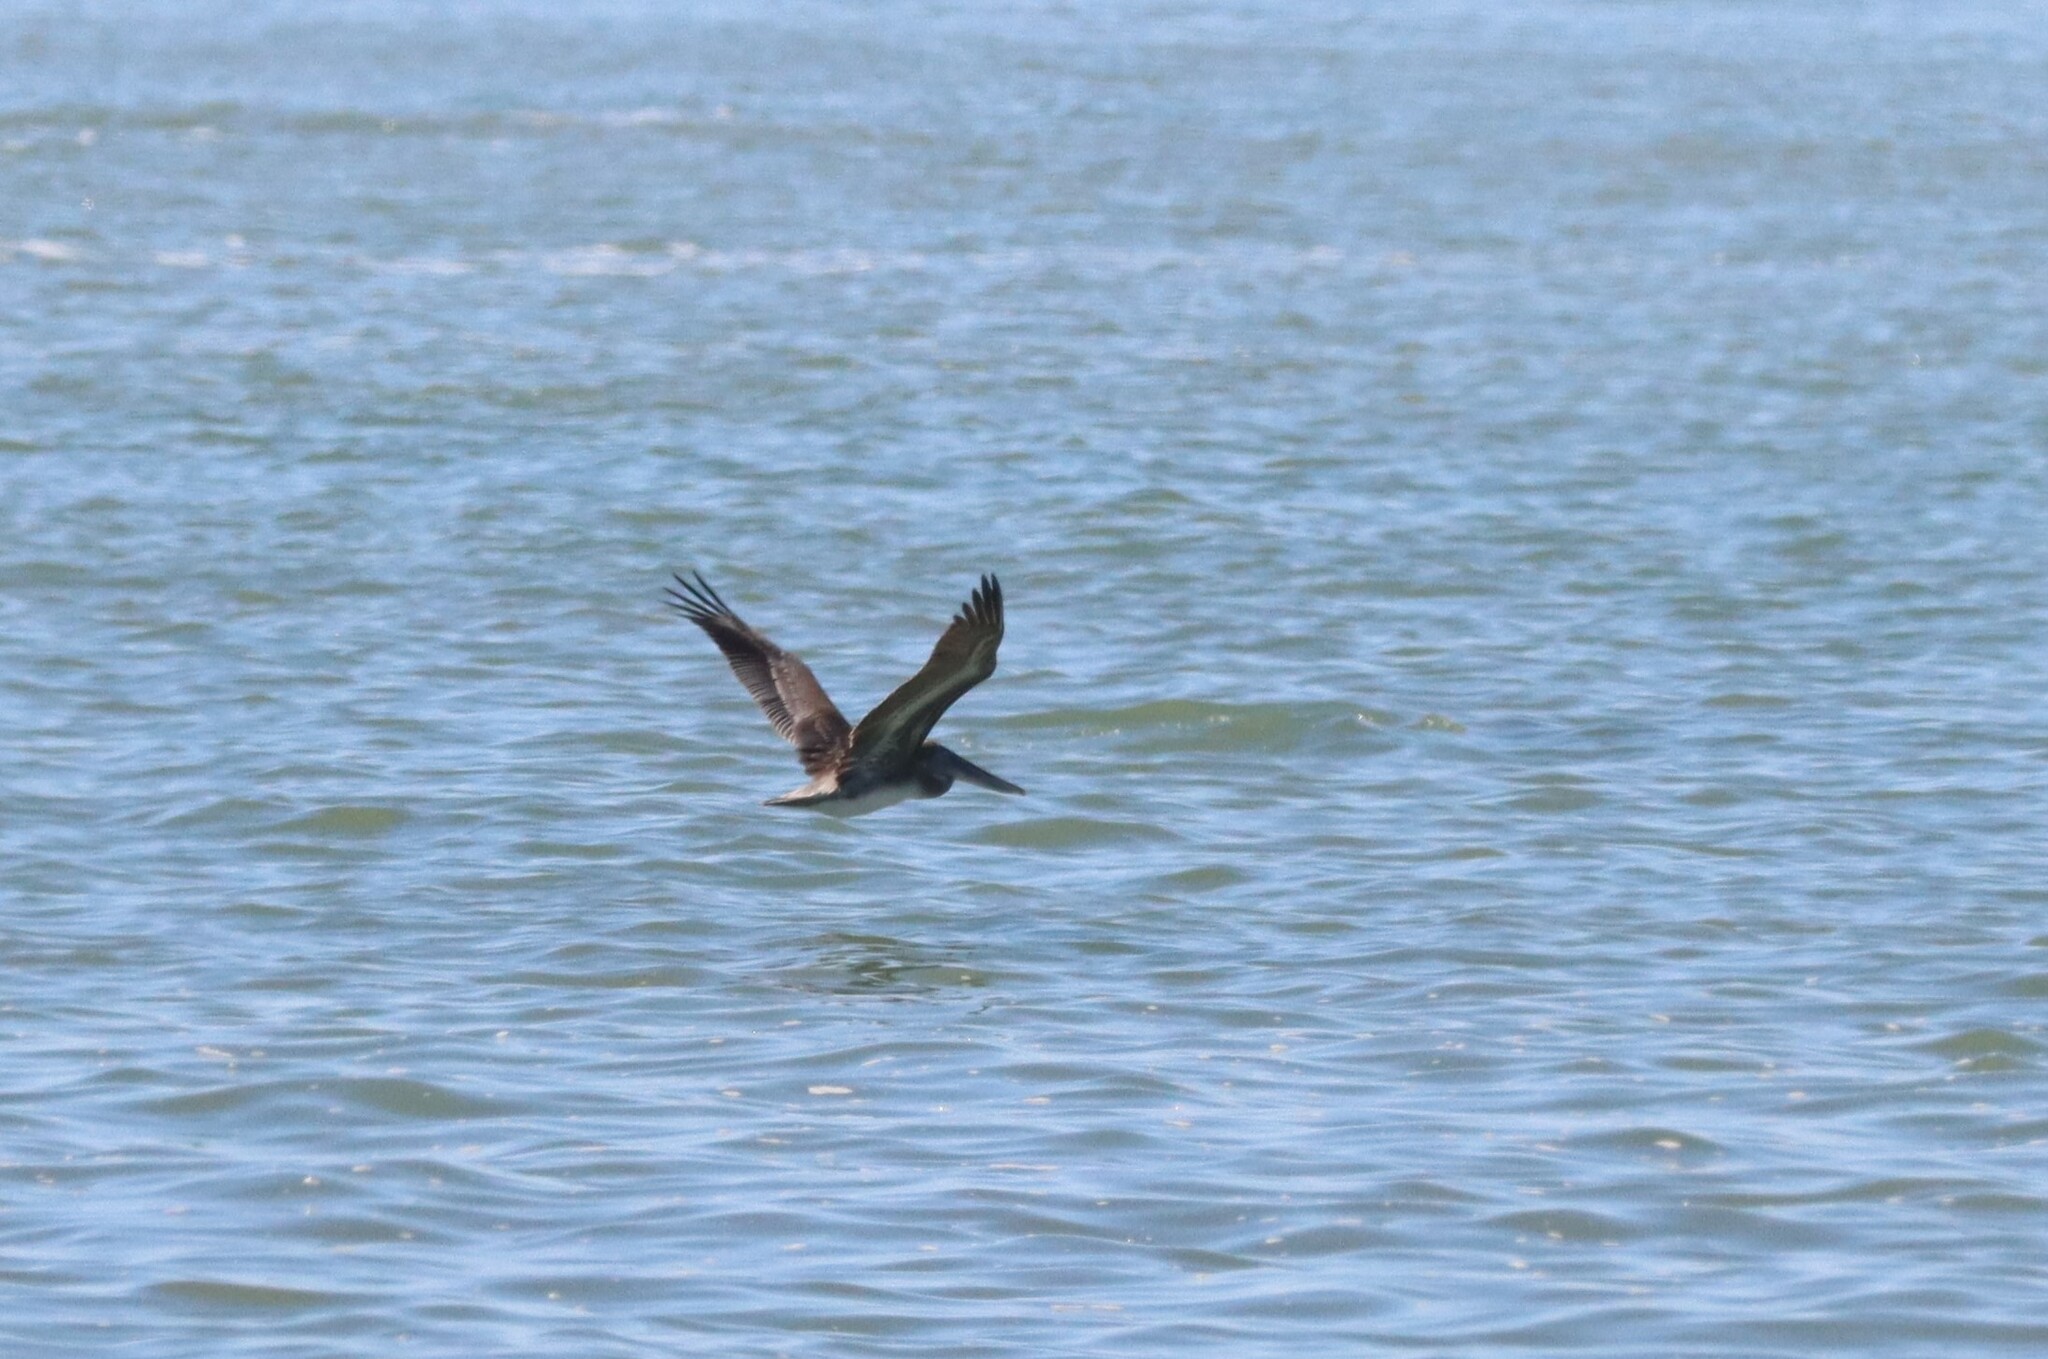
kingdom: Animalia
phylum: Chordata
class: Aves
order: Pelecaniformes
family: Pelecanidae
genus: Pelecanus
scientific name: Pelecanus occidentalis
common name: Brown pelican
